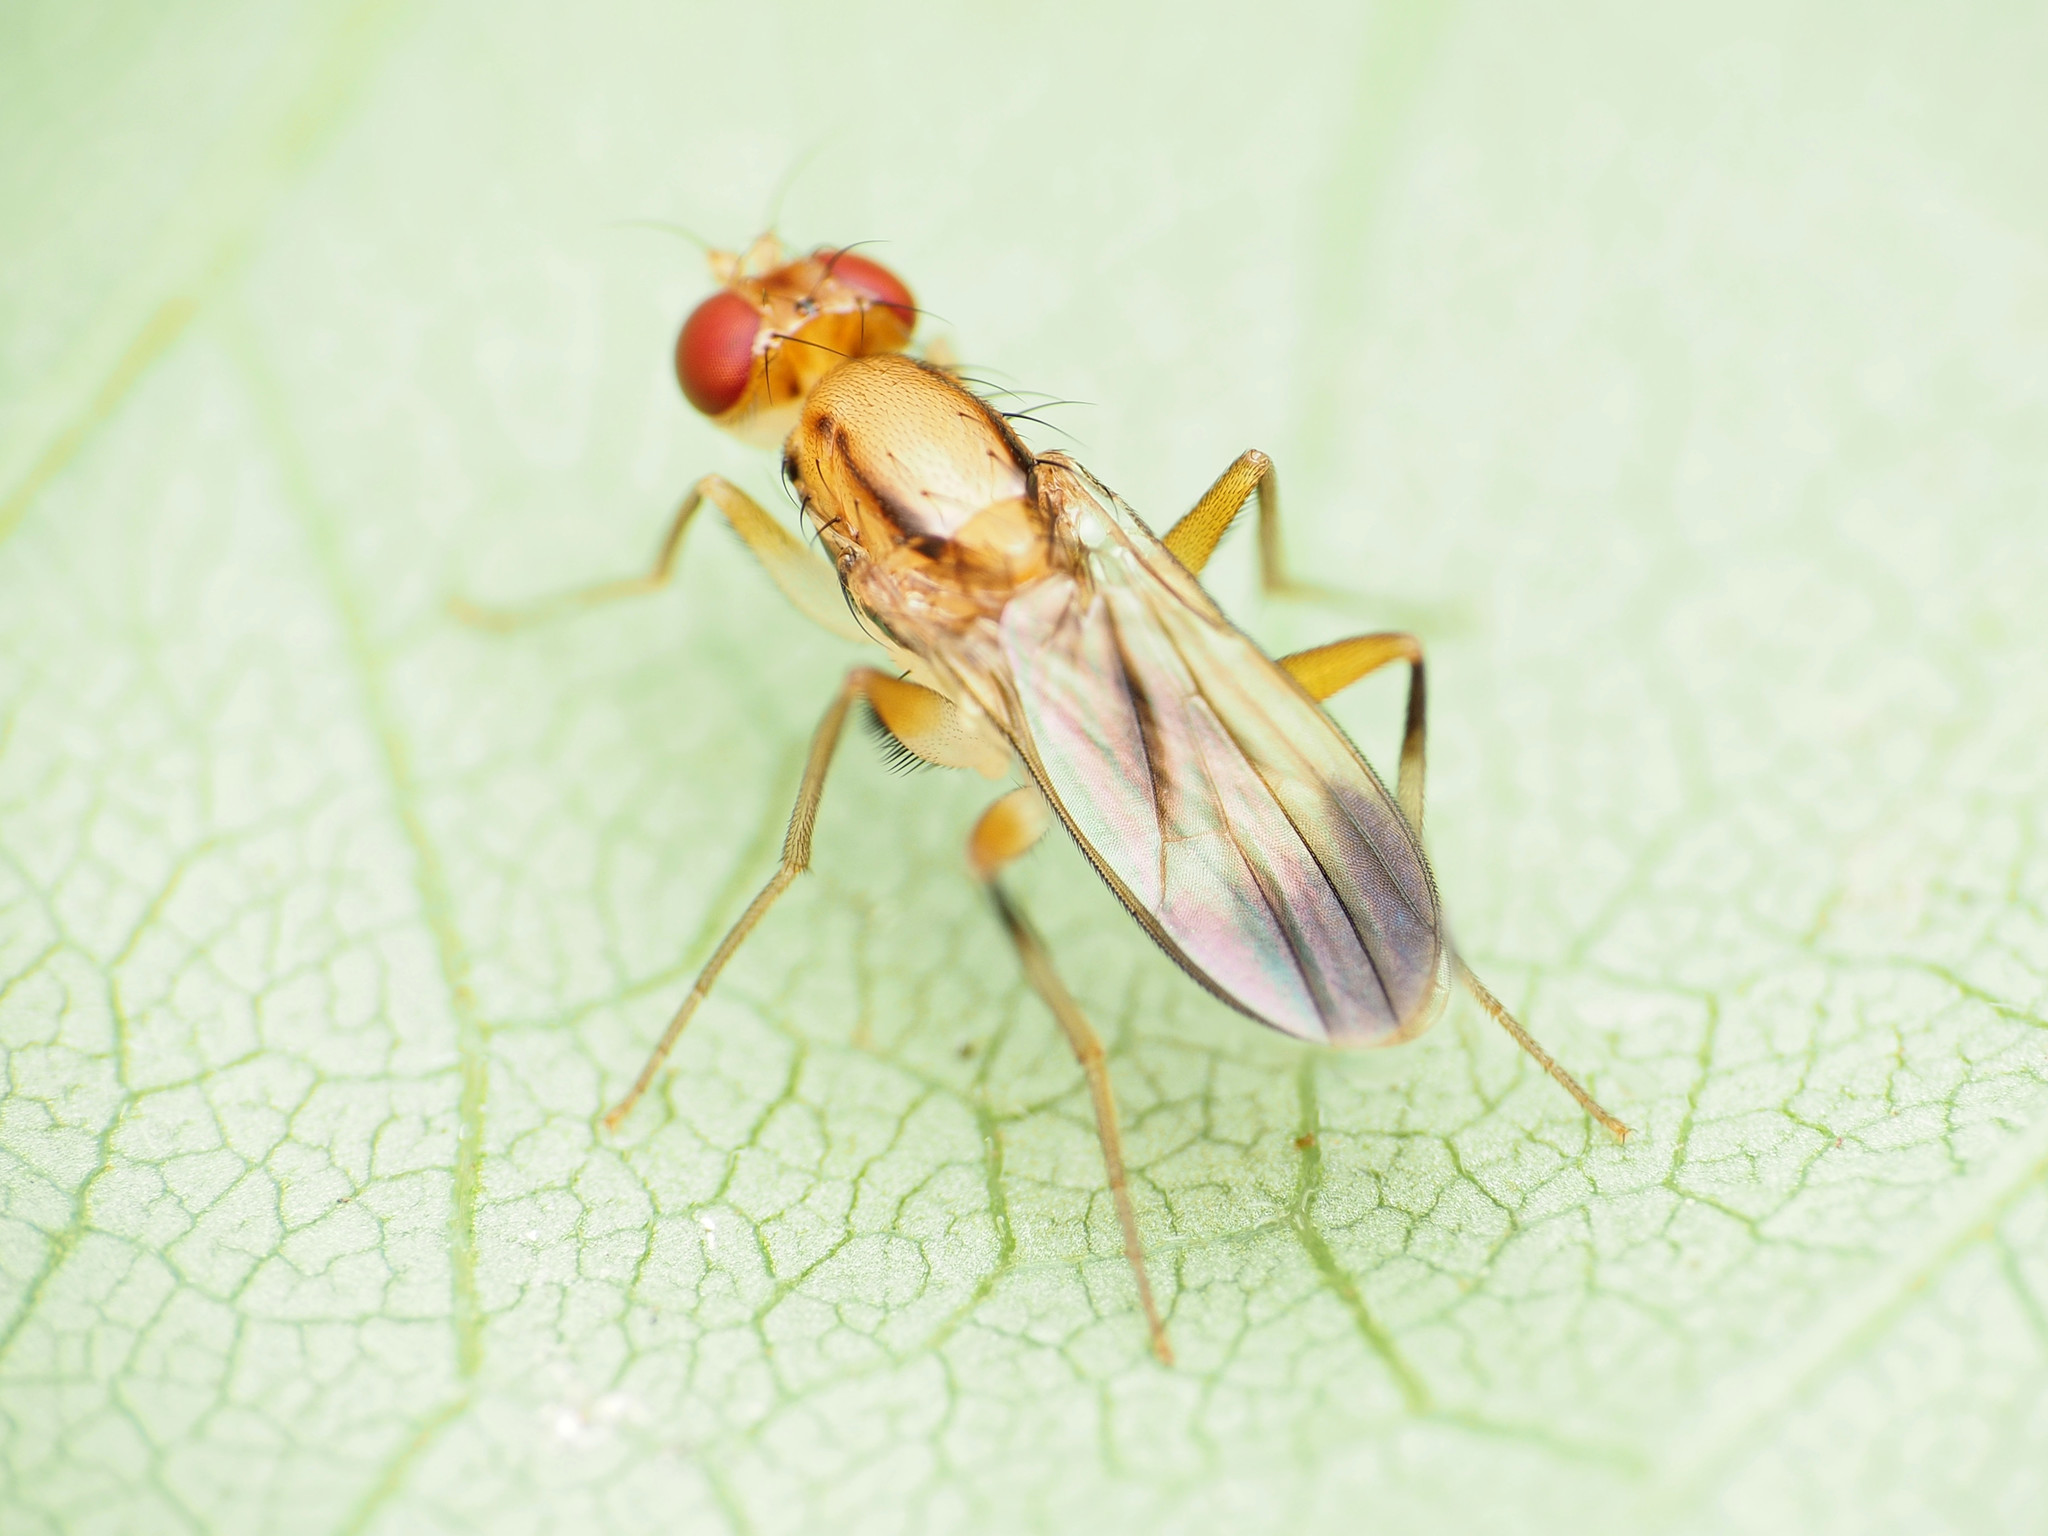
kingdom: Animalia
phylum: Arthropoda
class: Insecta
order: Diptera
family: Clusiidae
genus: Clusia
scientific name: Clusia lateralis
